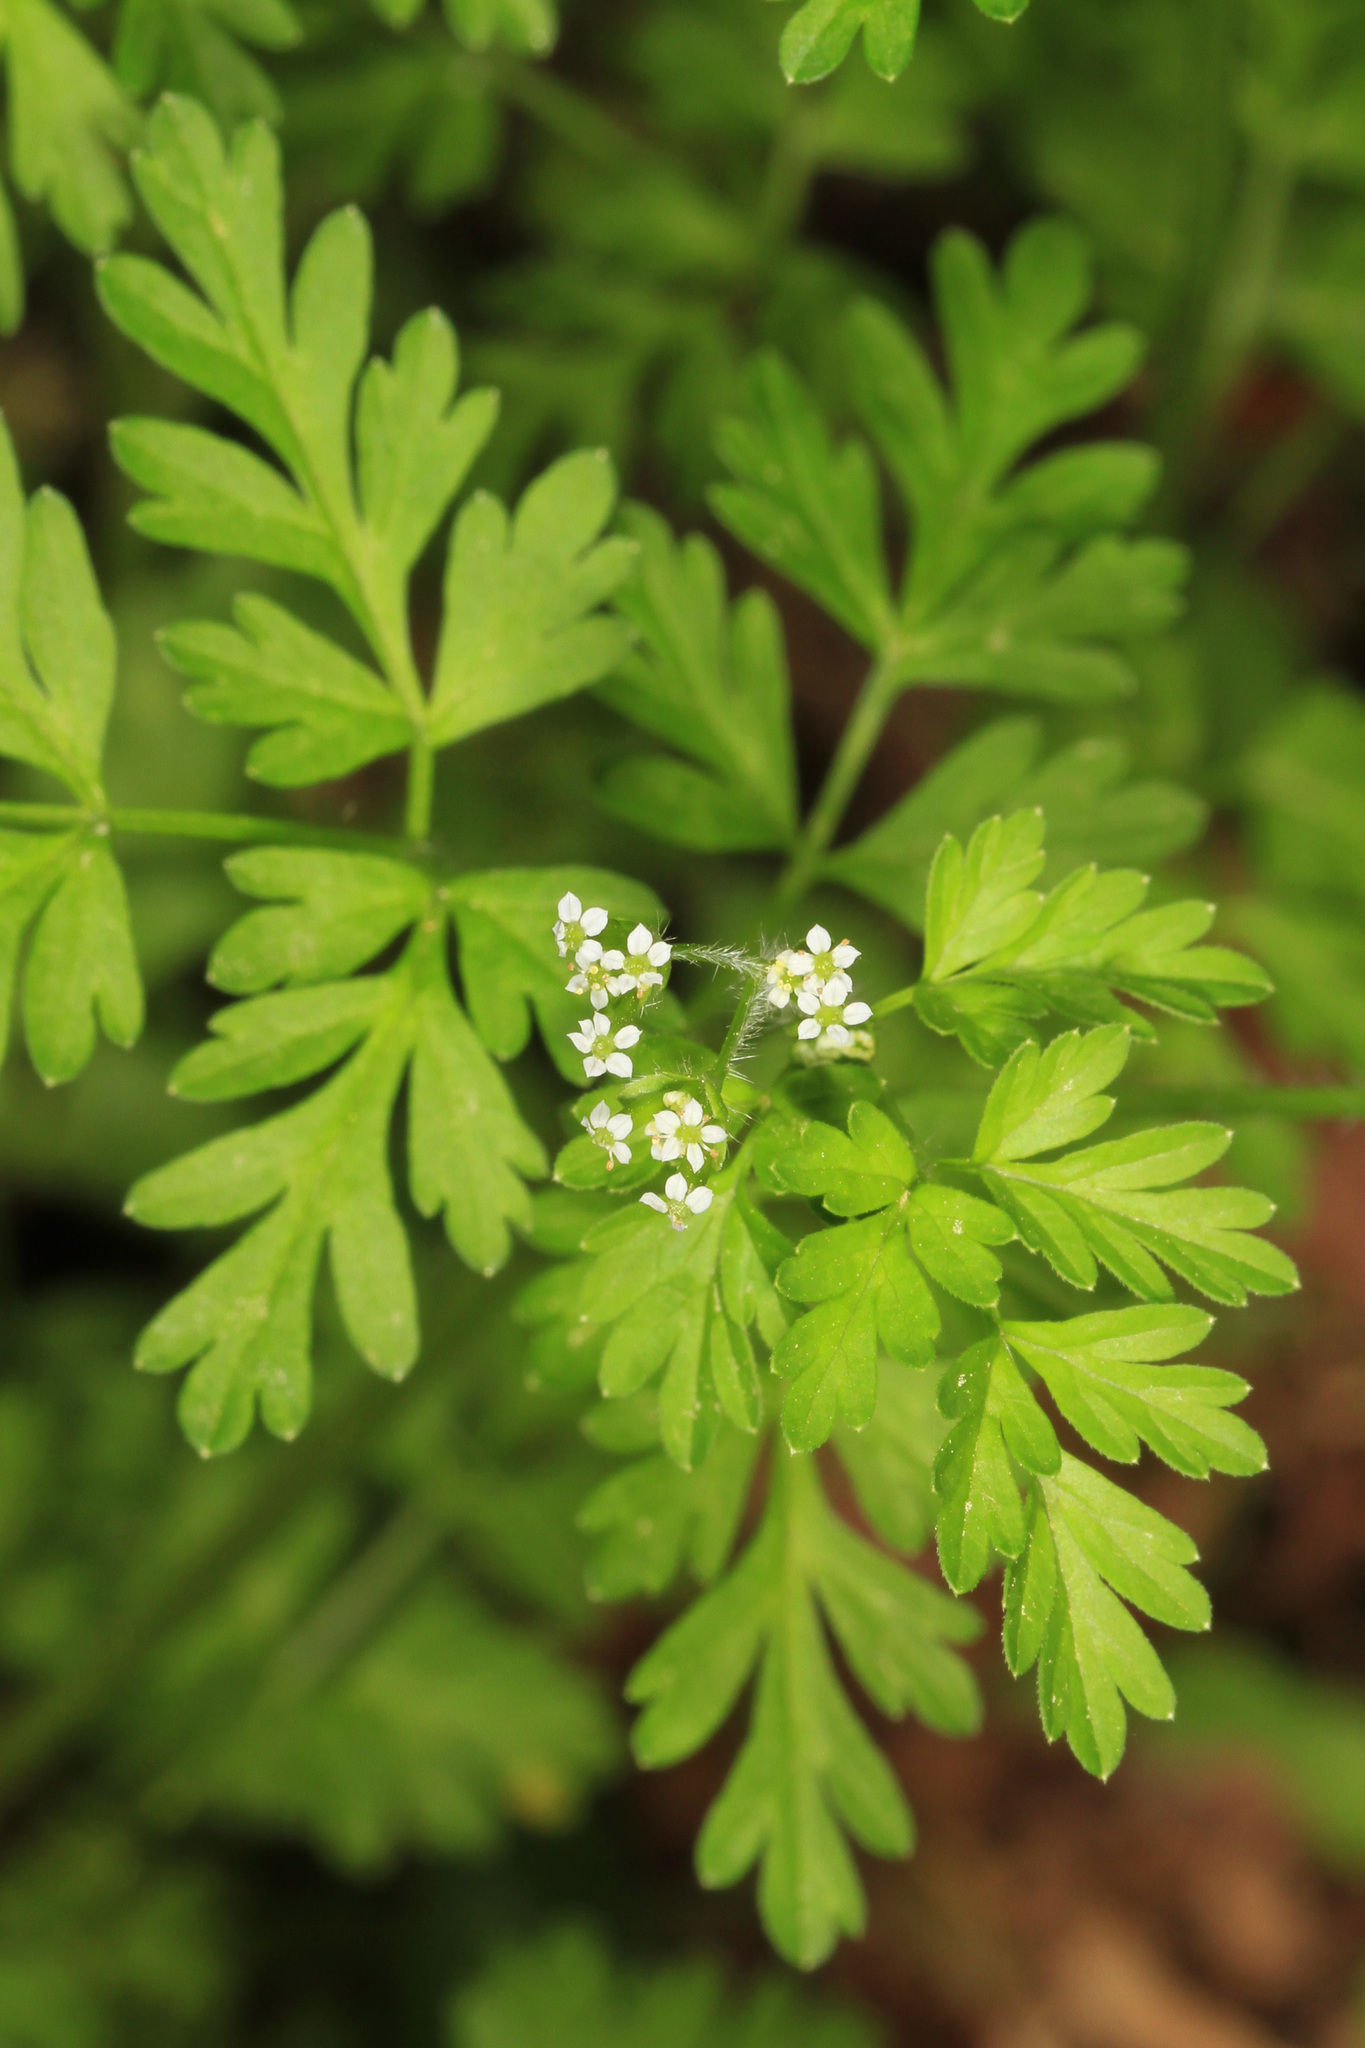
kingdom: Plantae
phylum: Tracheophyta
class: Magnoliopsida
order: Apiales
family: Apiaceae
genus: Chaerophyllum
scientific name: Chaerophyllum tainturieri
